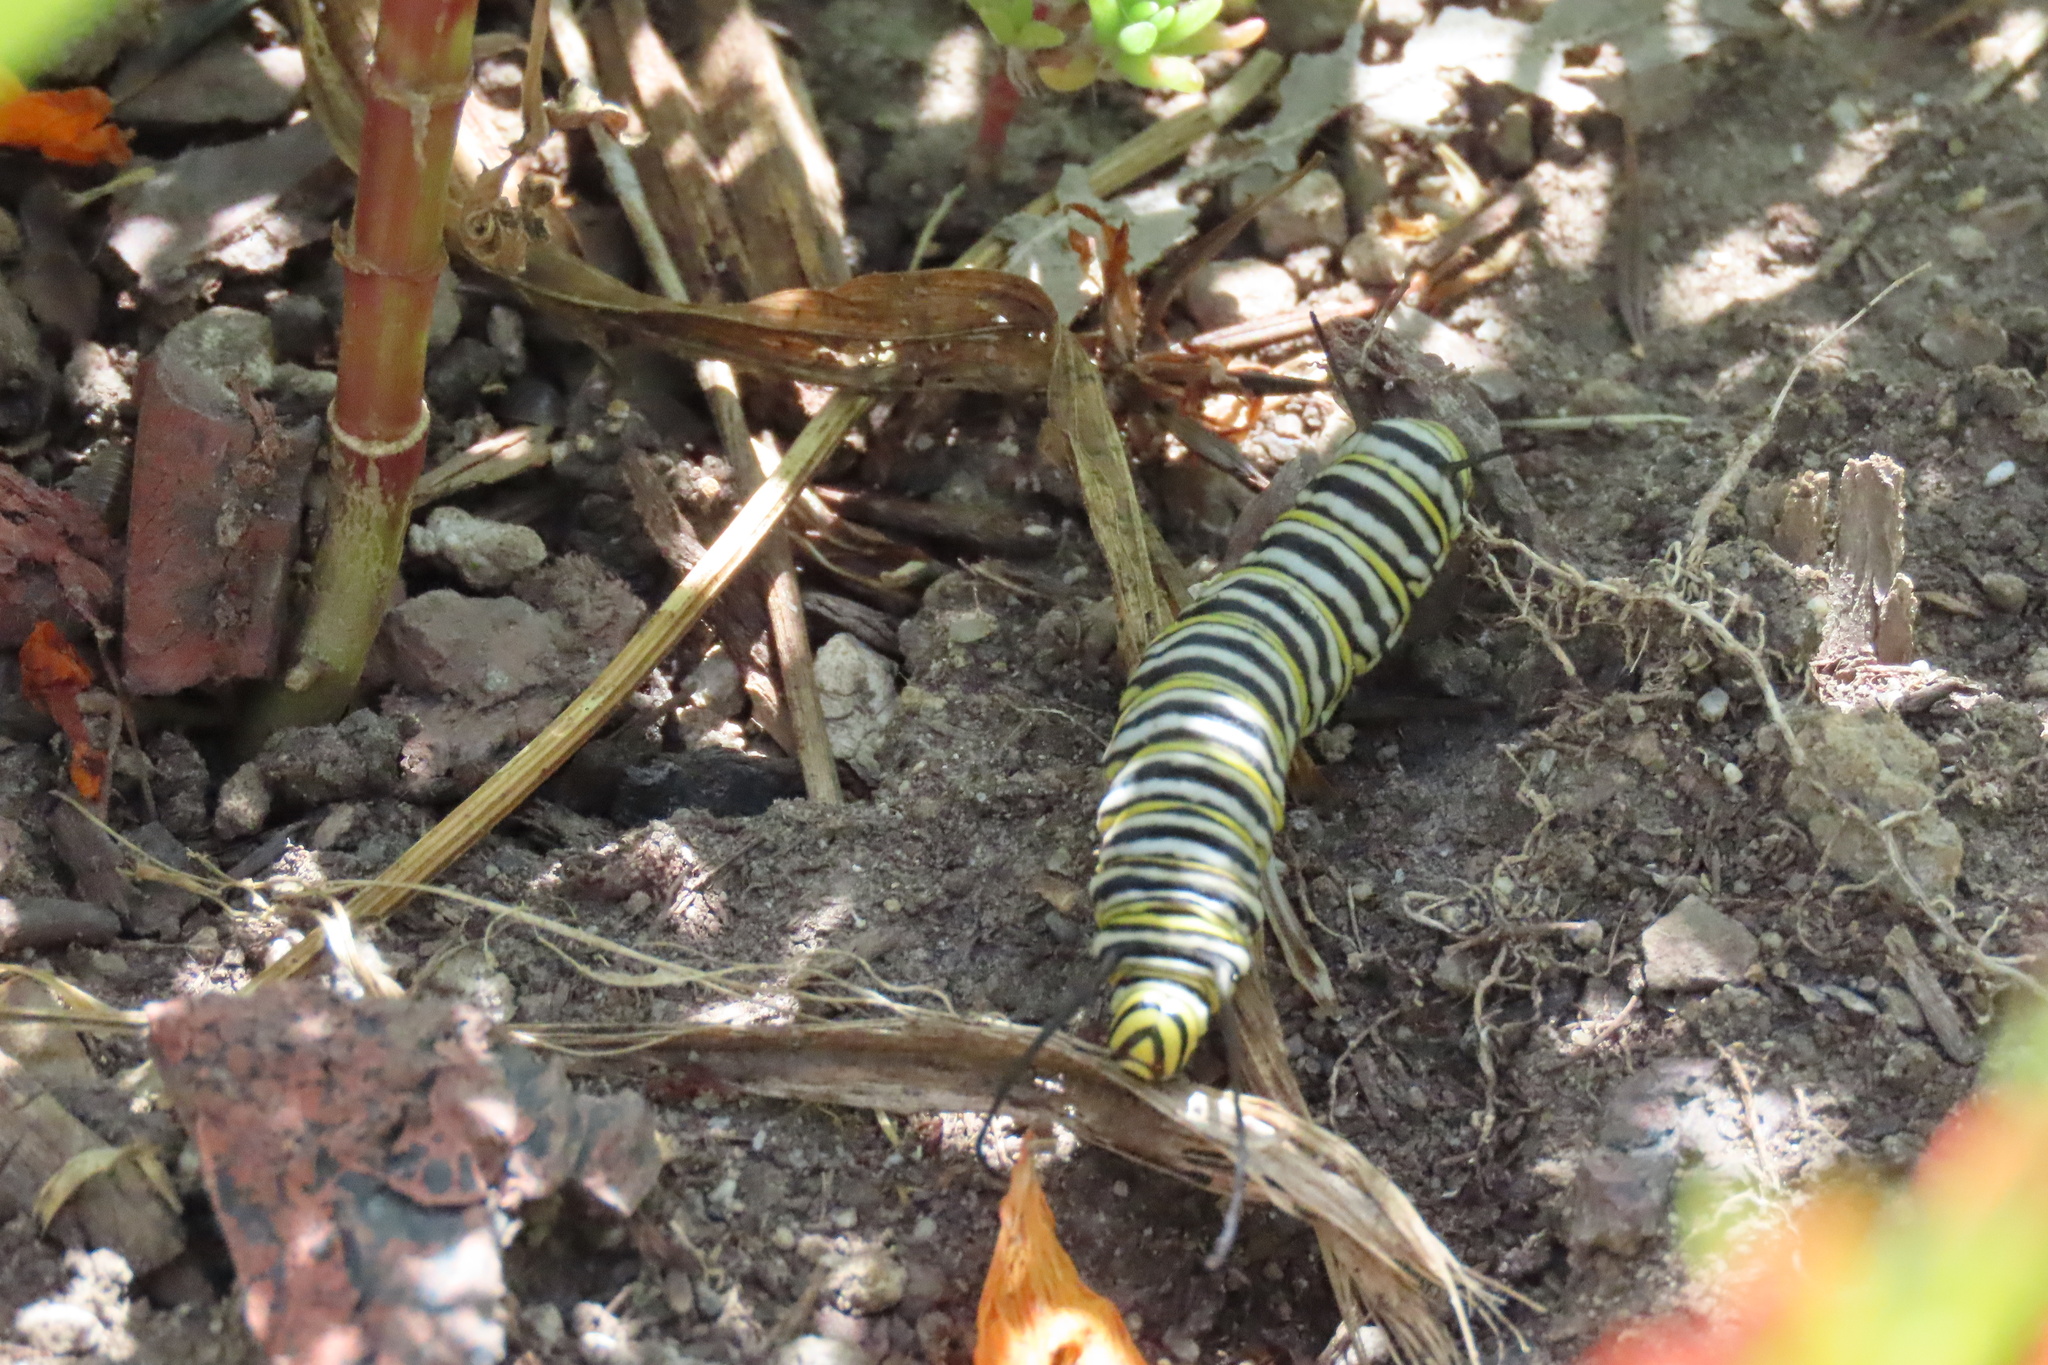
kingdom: Animalia
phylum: Arthropoda
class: Insecta
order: Lepidoptera
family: Nymphalidae
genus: Danaus
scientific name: Danaus plexippus
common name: Monarch
